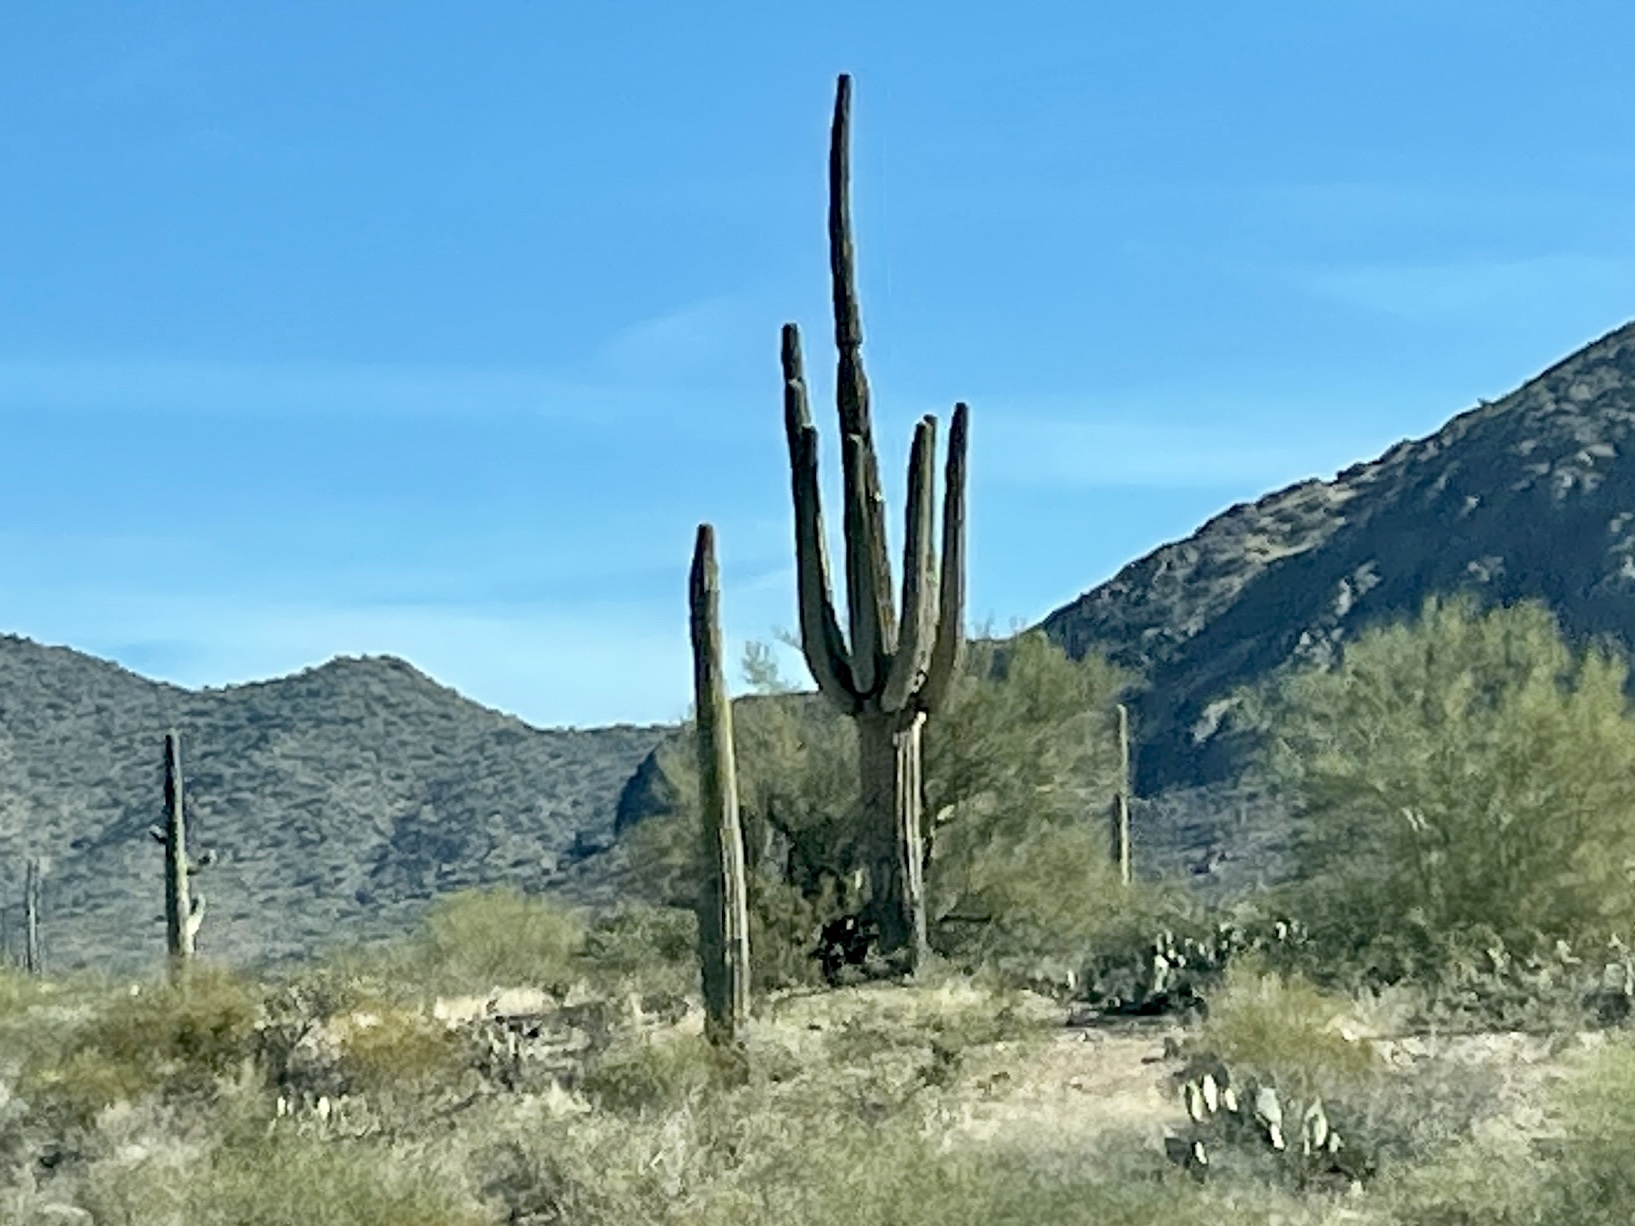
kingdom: Plantae
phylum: Tracheophyta
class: Magnoliopsida
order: Caryophyllales
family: Cactaceae
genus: Carnegiea
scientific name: Carnegiea gigantea
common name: Saguaro
